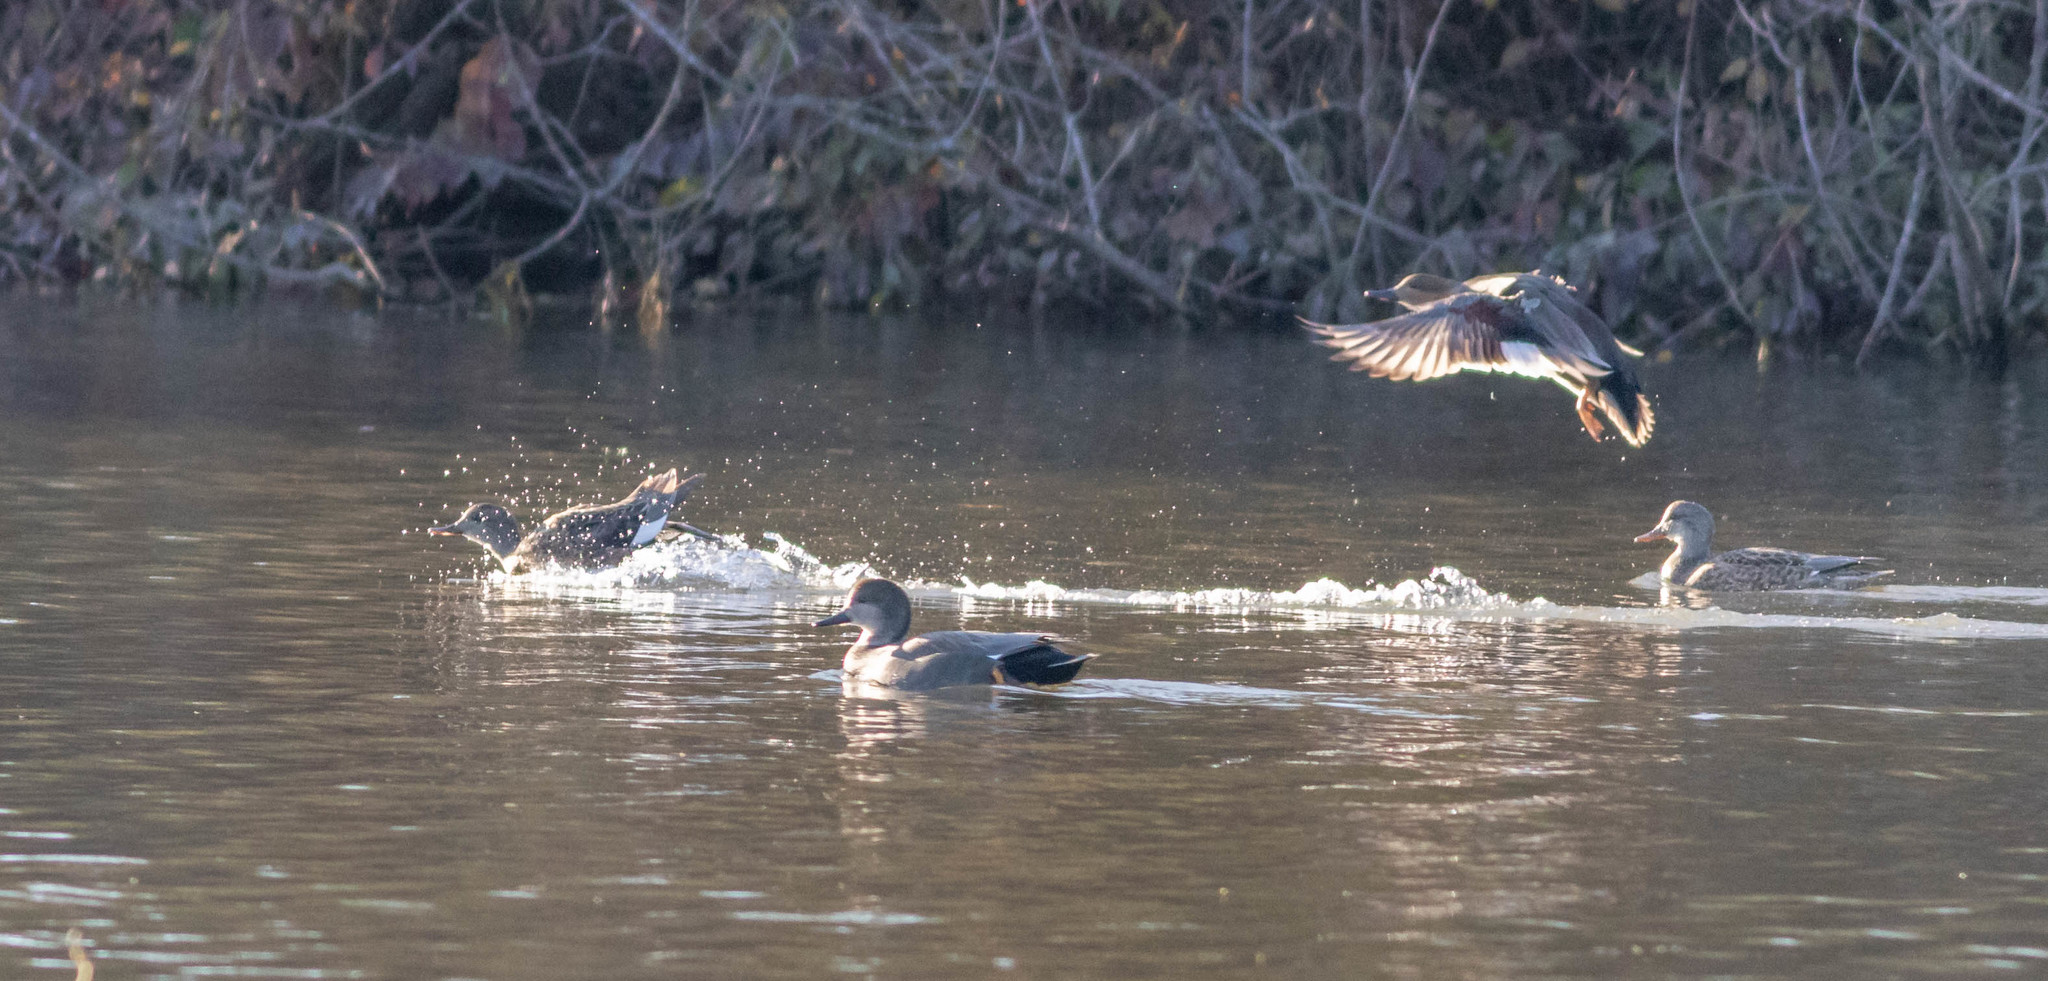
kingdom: Animalia
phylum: Chordata
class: Aves
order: Anseriformes
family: Anatidae
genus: Mareca
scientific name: Mareca strepera
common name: Gadwall
